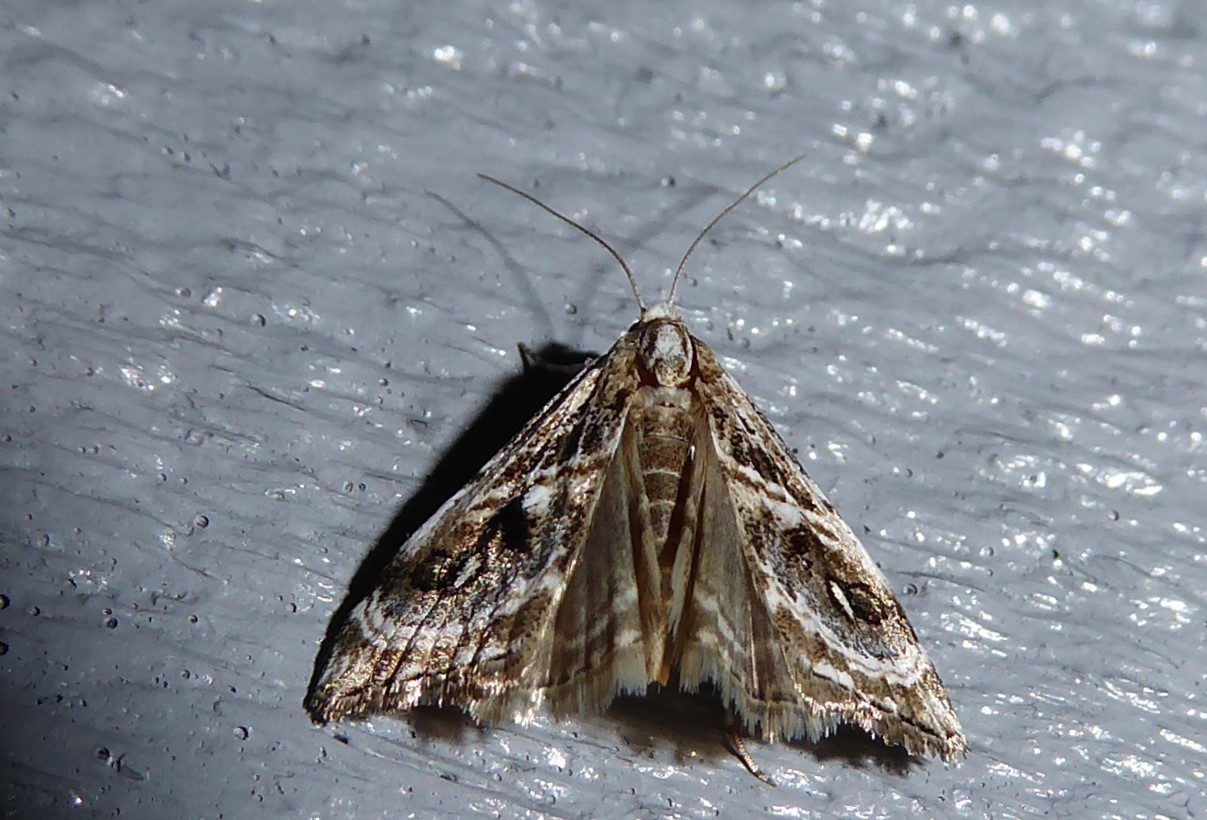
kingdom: Animalia
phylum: Arthropoda
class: Insecta
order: Lepidoptera
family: Crambidae
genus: Gadira
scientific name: Gadira acerella
